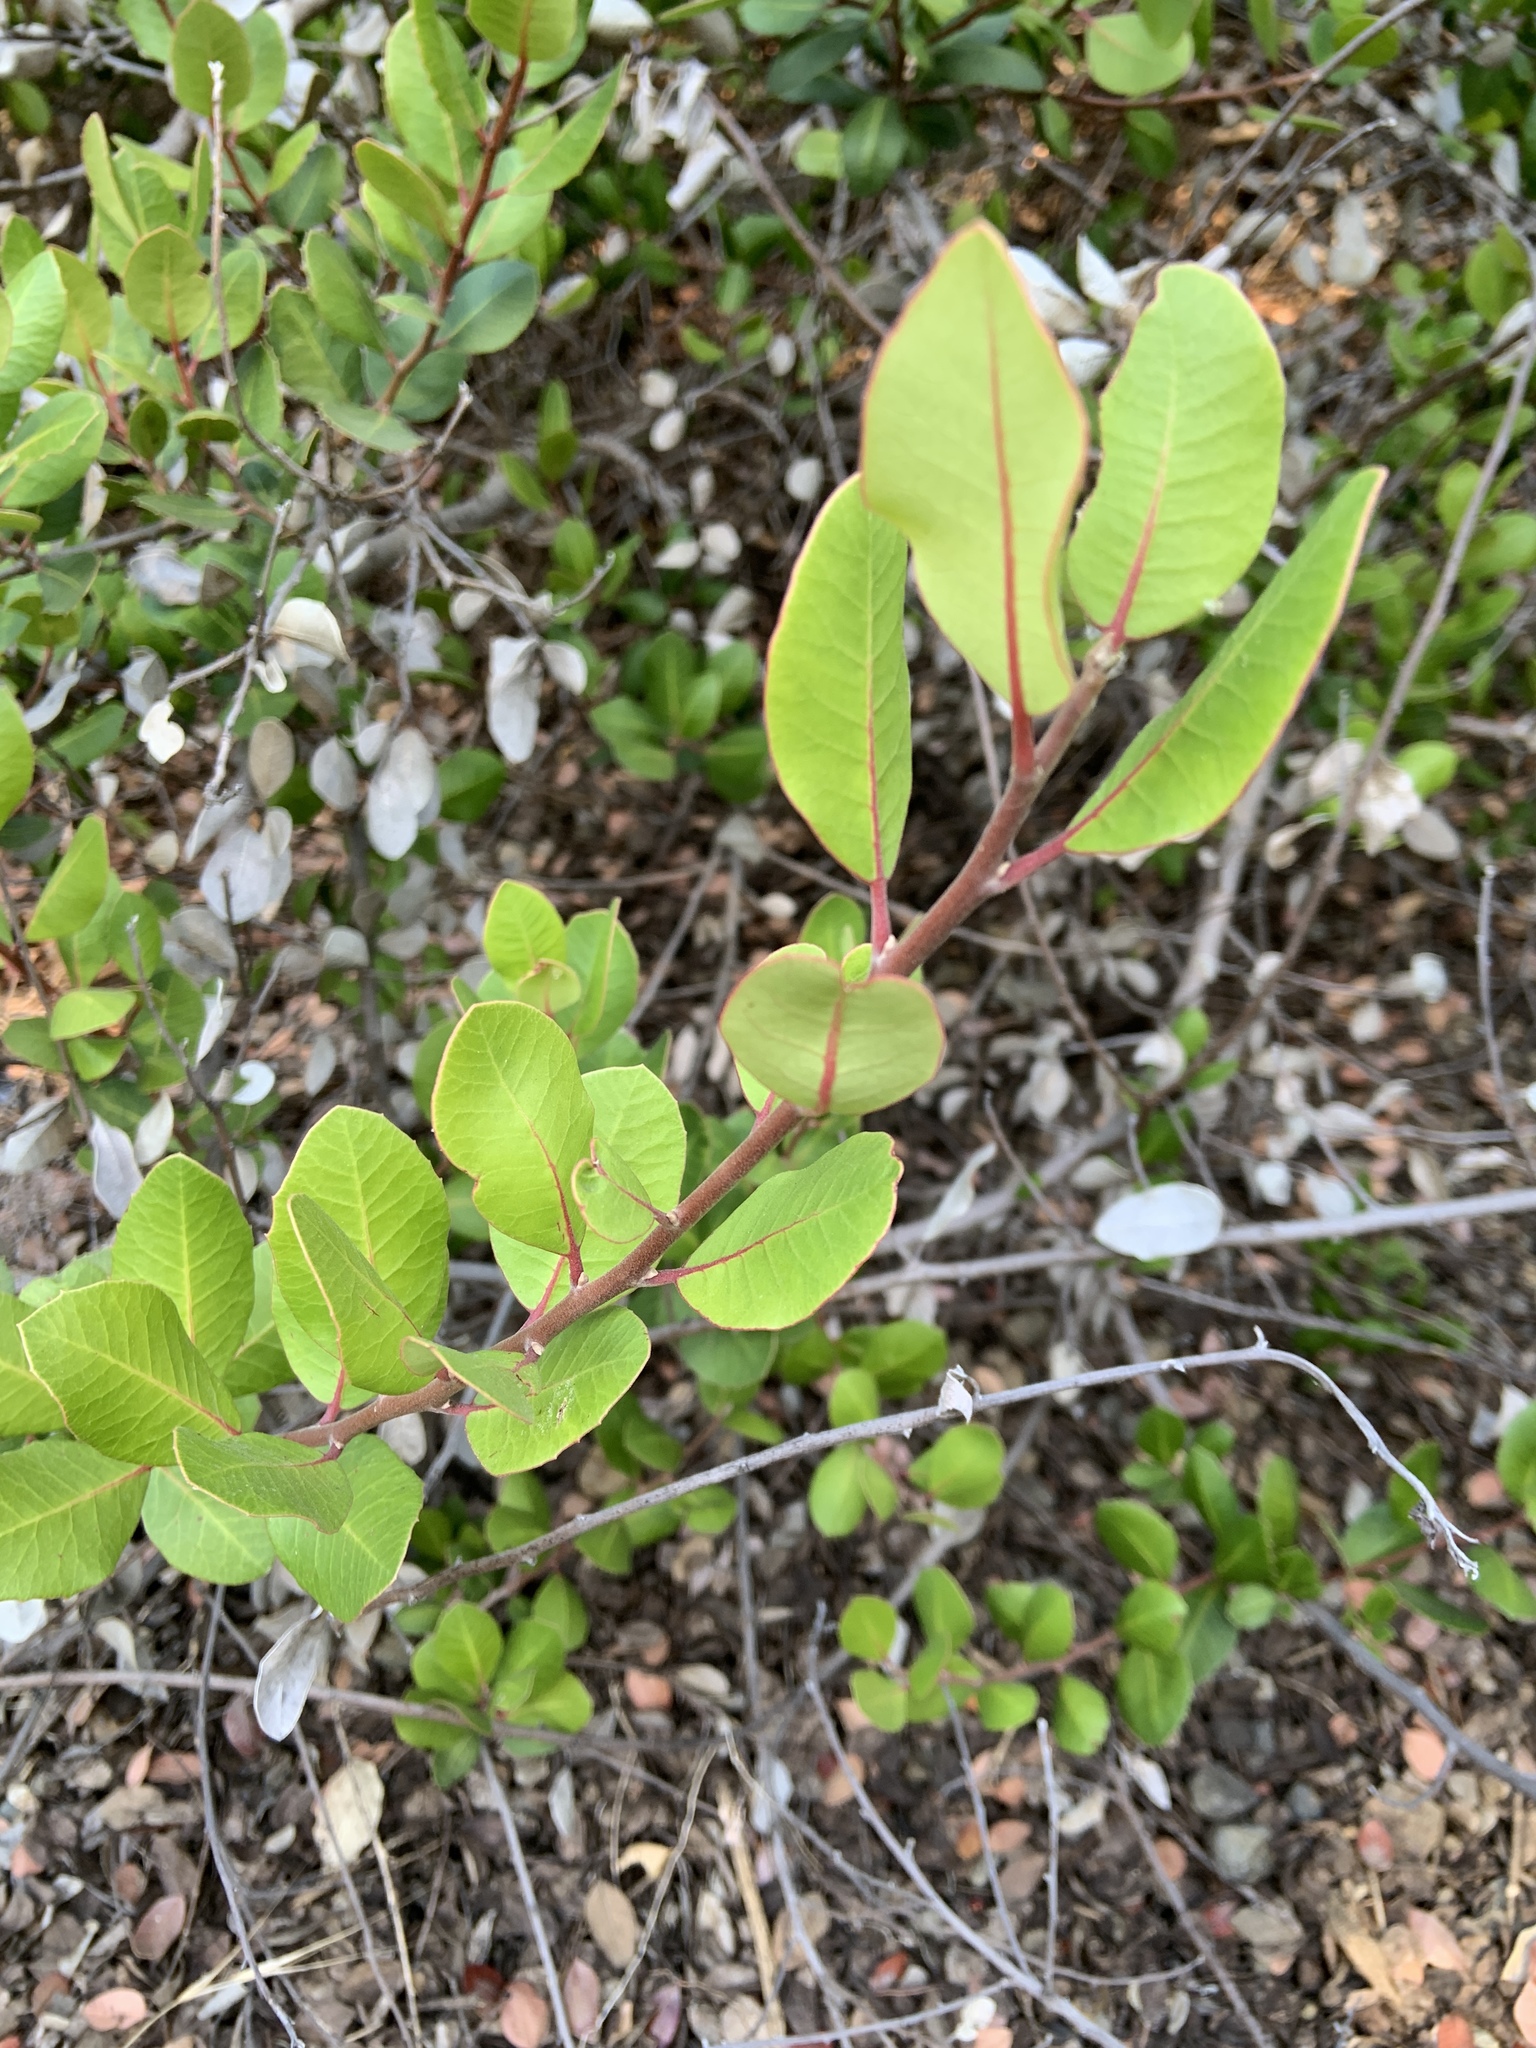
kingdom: Plantae
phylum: Tracheophyta
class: Magnoliopsida
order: Sapindales
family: Anacardiaceae
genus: Rhus
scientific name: Rhus integrifolia
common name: Lemonade sumac
